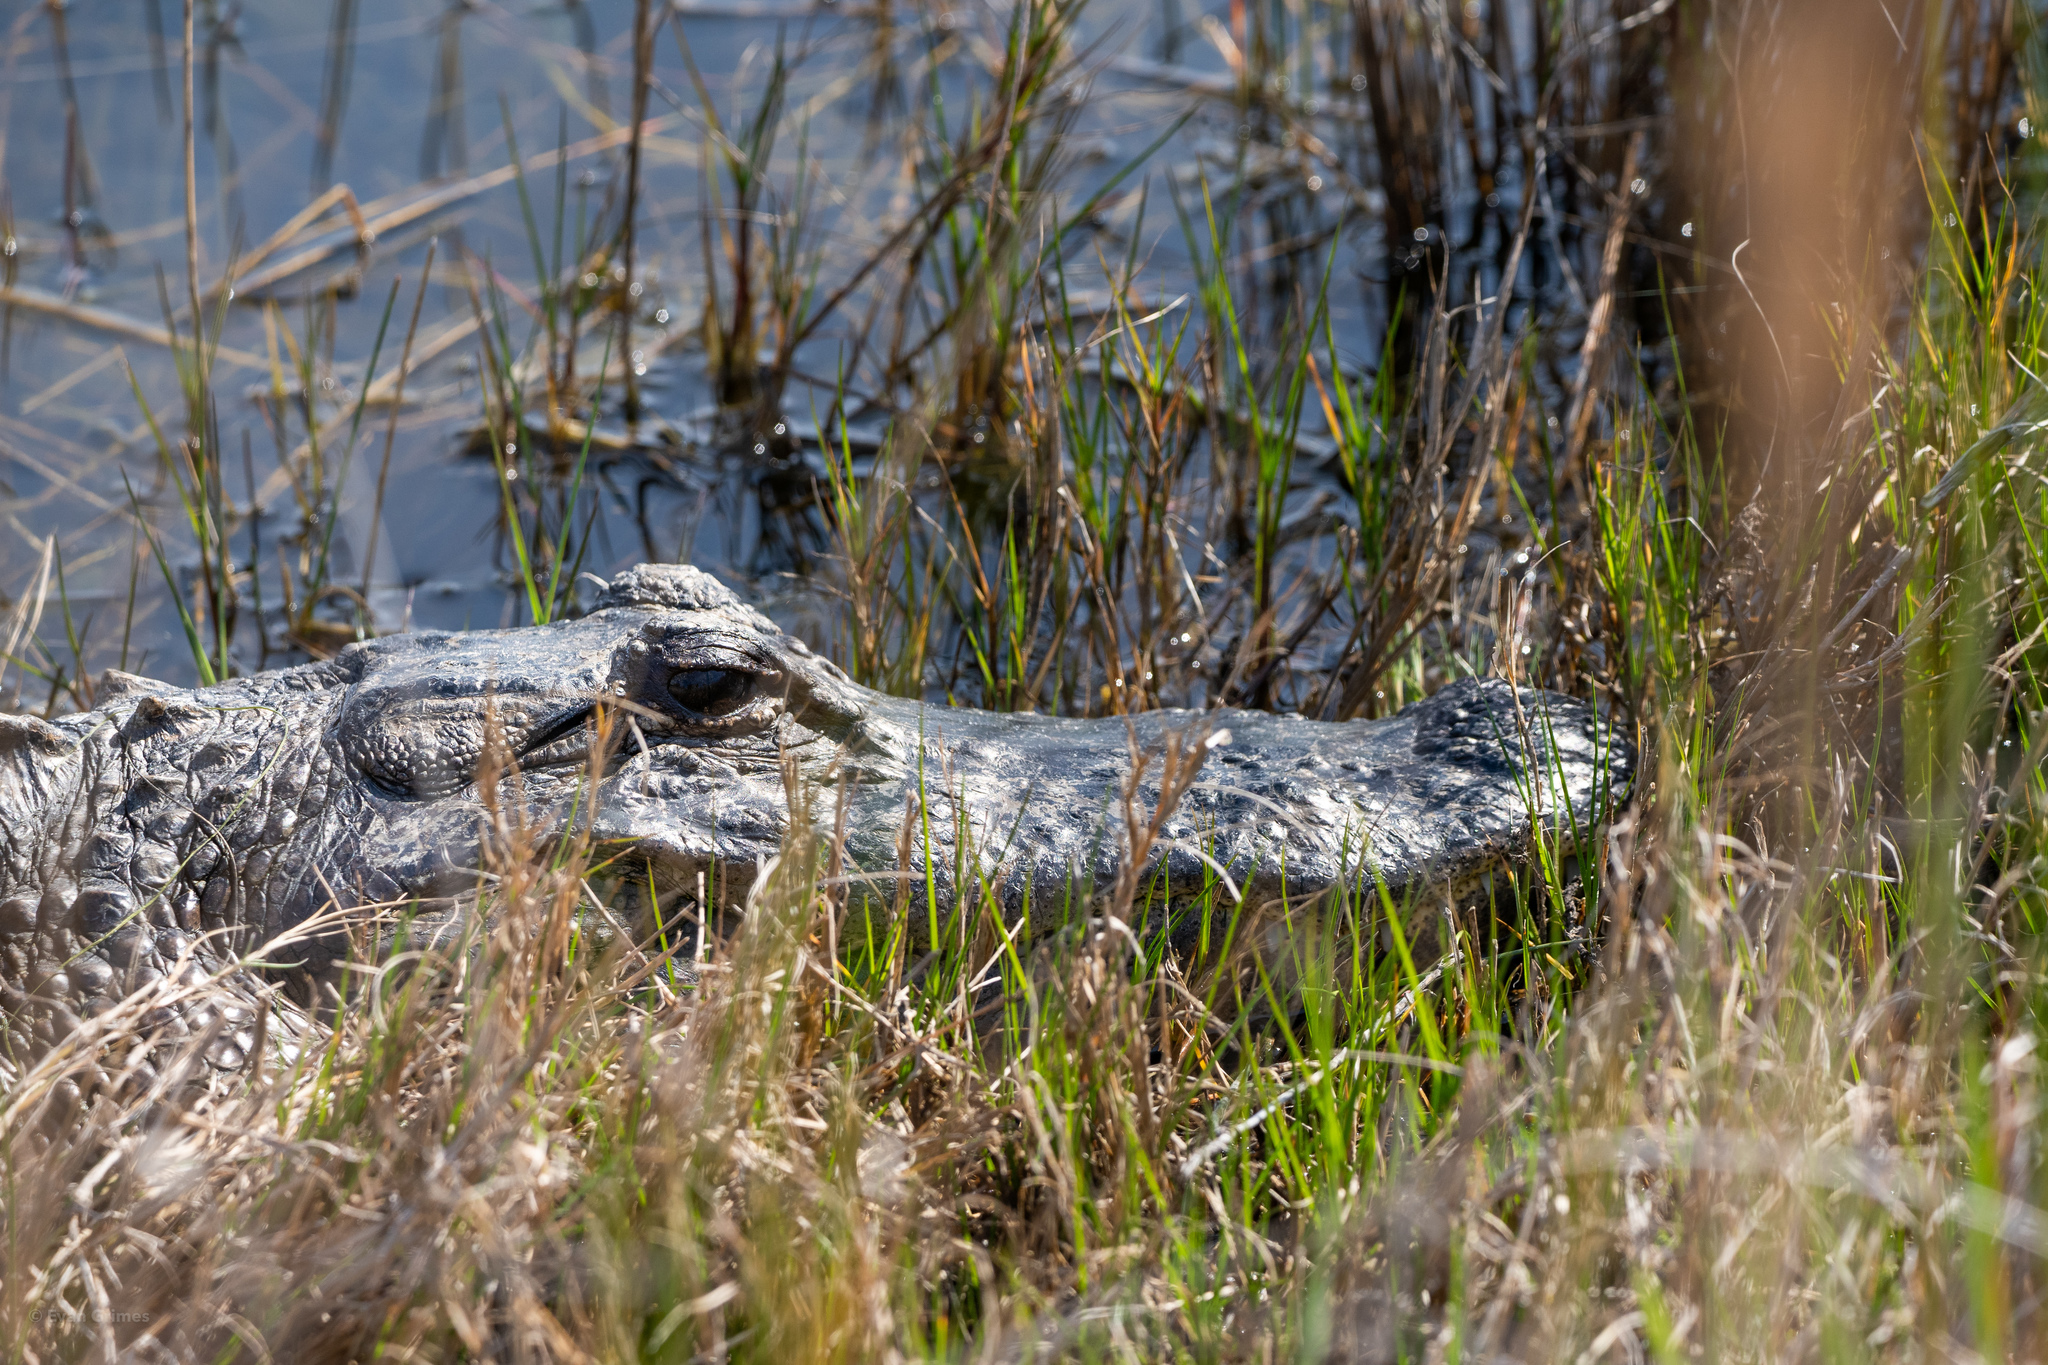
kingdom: Animalia
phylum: Chordata
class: Crocodylia
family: Alligatoridae
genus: Alligator
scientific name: Alligator mississippiensis
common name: American alligator
